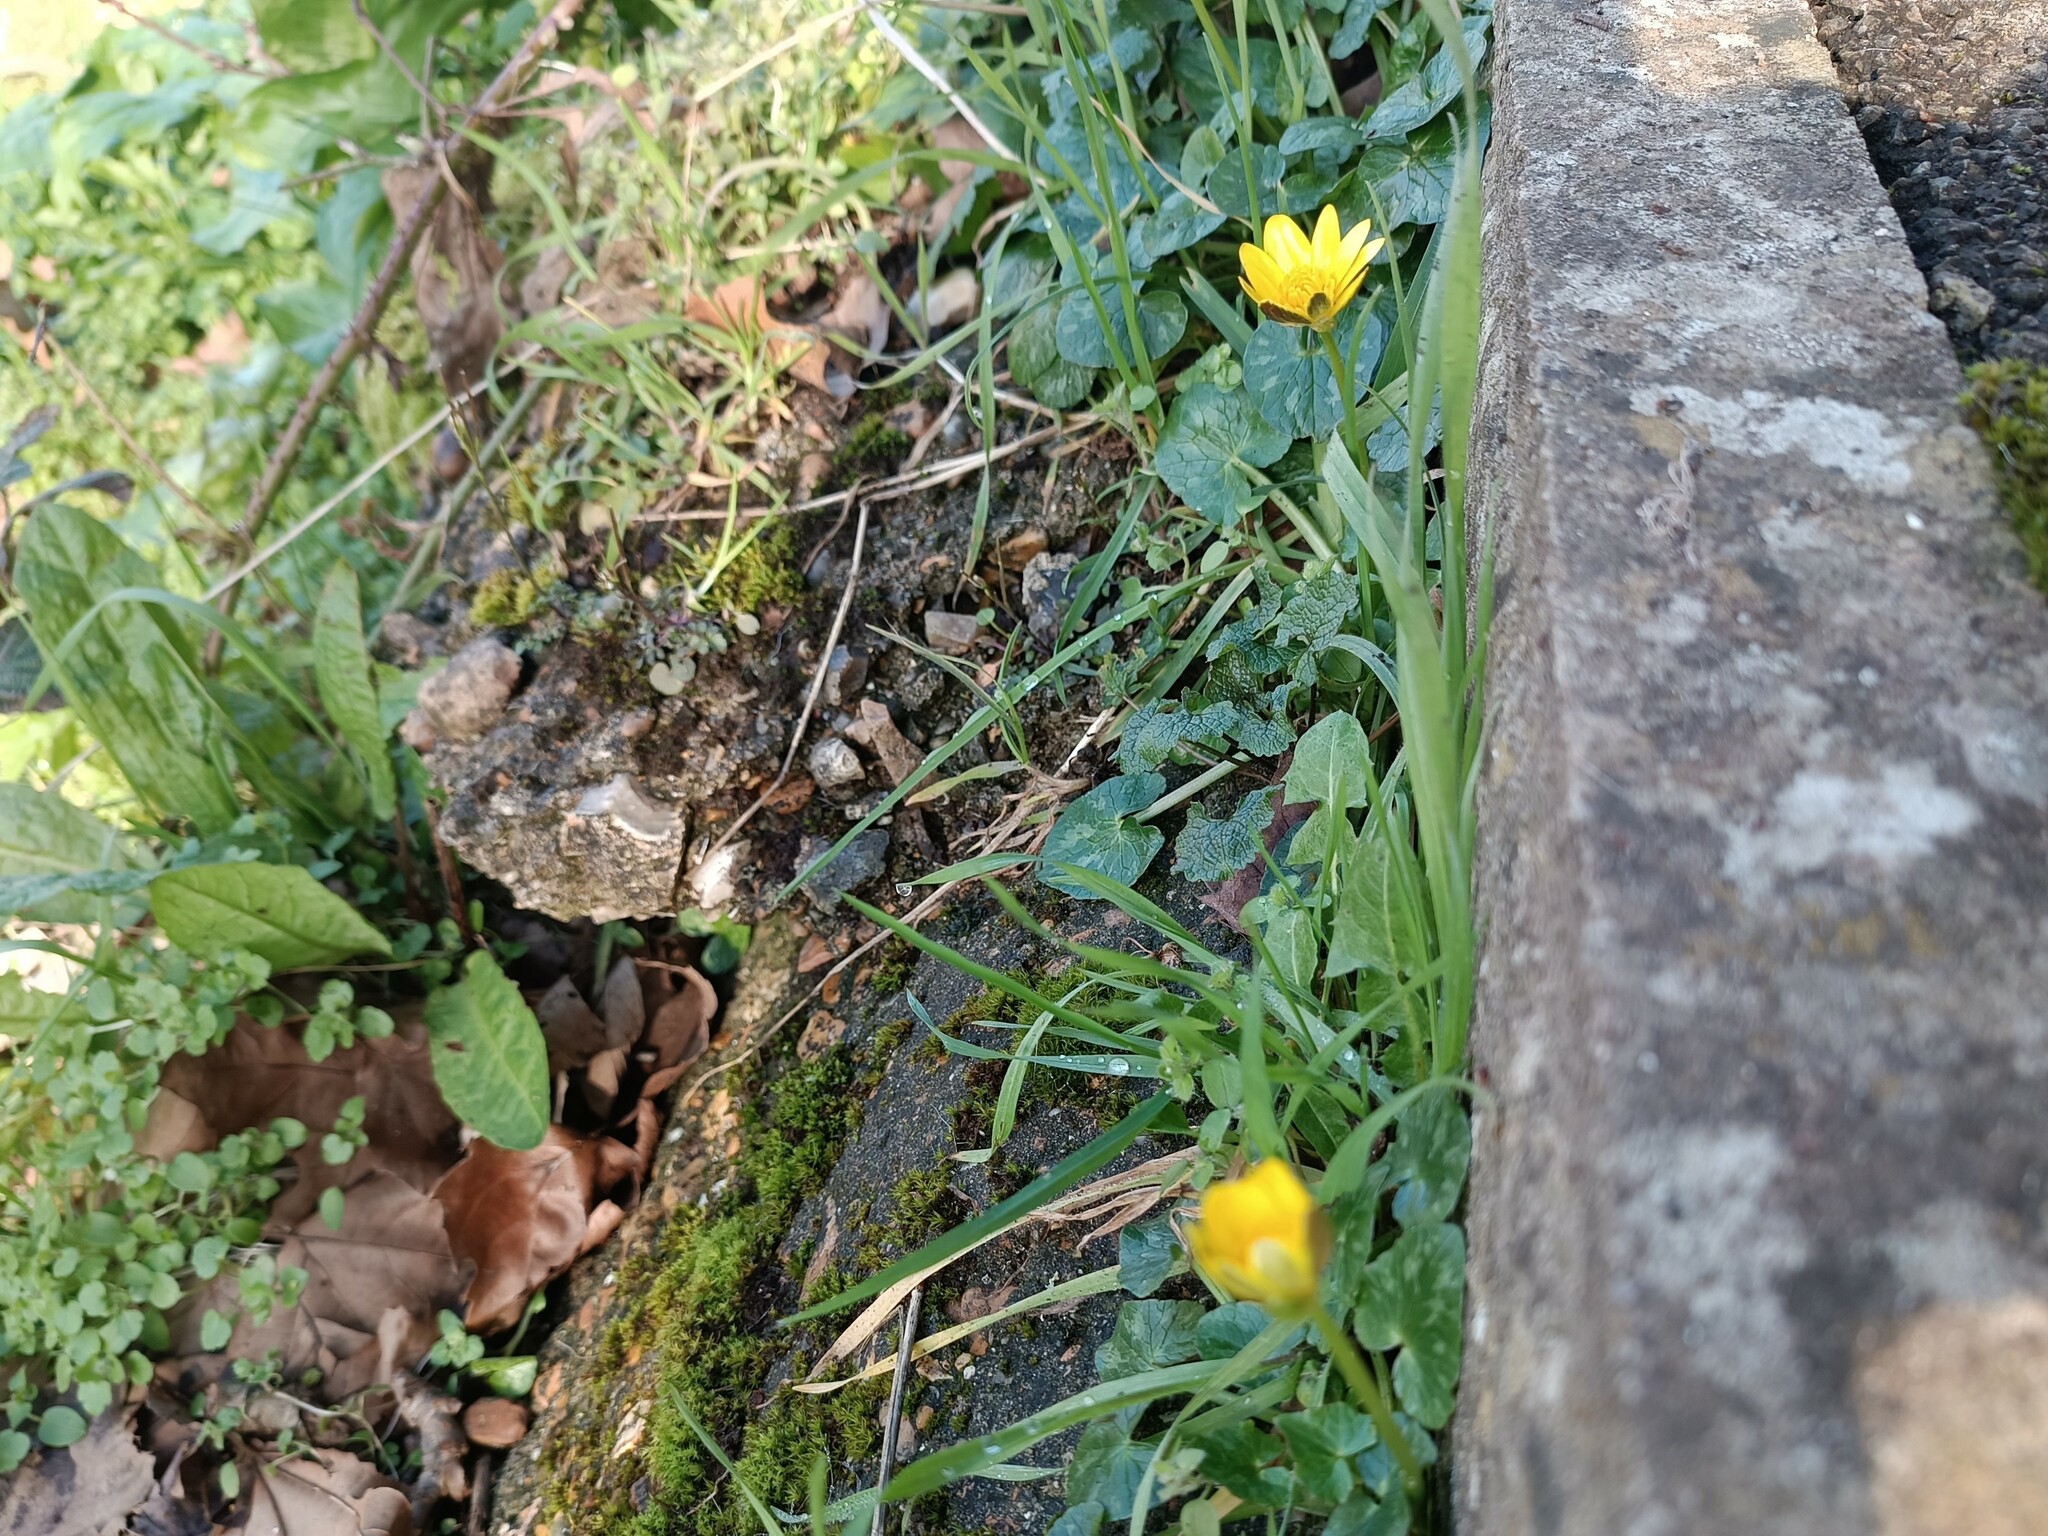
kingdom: Plantae
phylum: Tracheophyta
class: Magnoliopsida
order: Ranunculales
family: Ranunculaceae
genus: Ficaria
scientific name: Ficaria verna
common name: Lesser celandine
